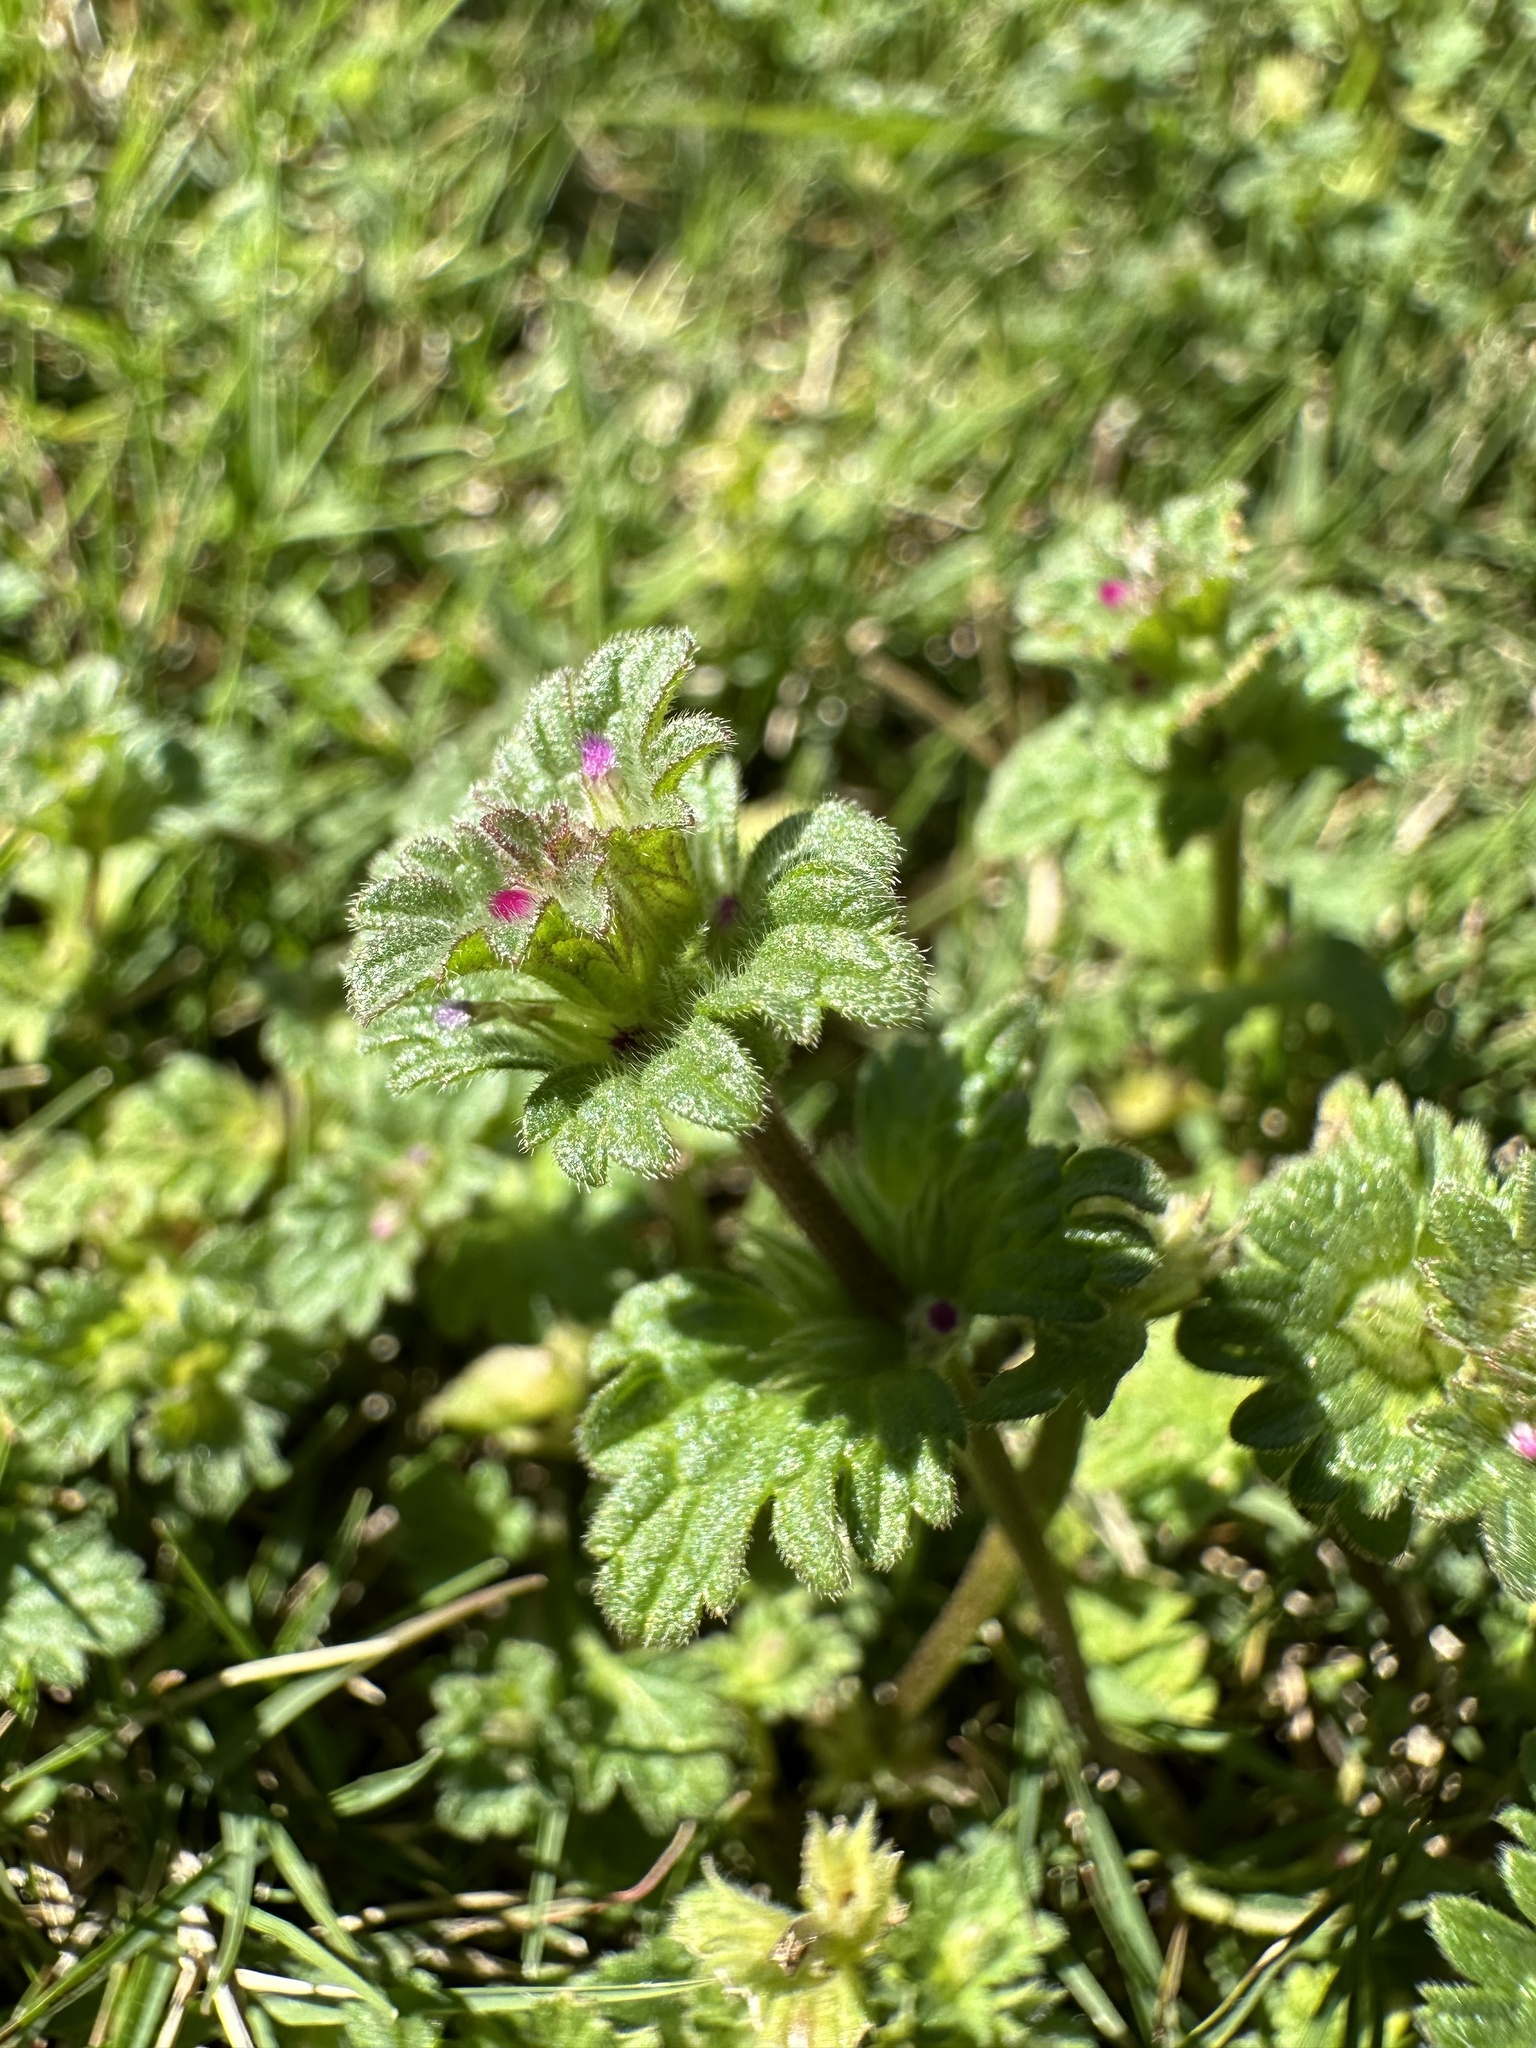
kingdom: Plantae
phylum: Tracheophyta
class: Magnoliopsida
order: Lamiales
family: Lamiaceae
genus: Lamium
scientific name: Lamium amplexicaule
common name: Henbit dead-nettle
